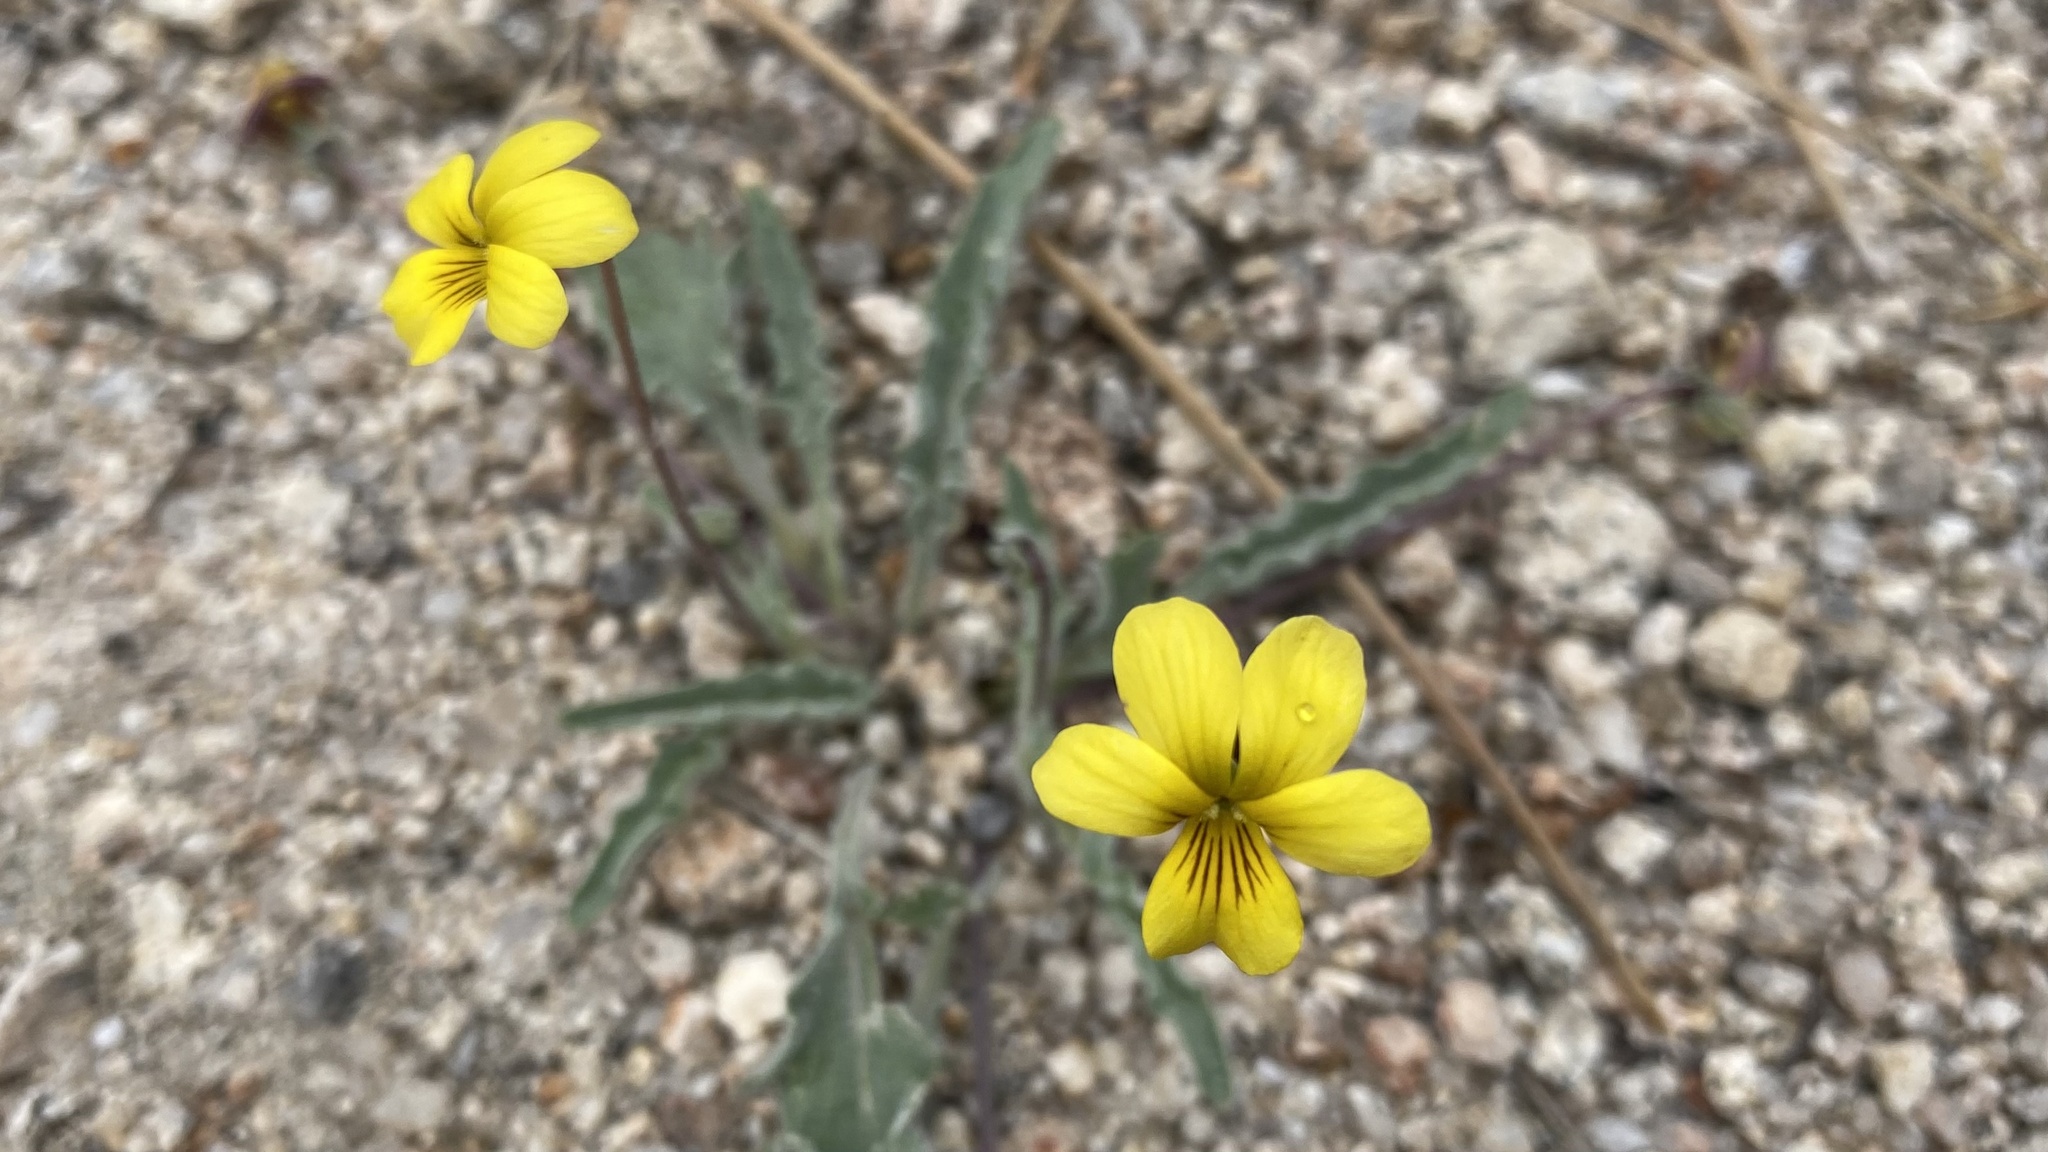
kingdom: Plantae
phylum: Tracheophyta
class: Magnoliopsida
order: Malpighiales
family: Violaceae
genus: Viola
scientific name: Viola pinetorum
